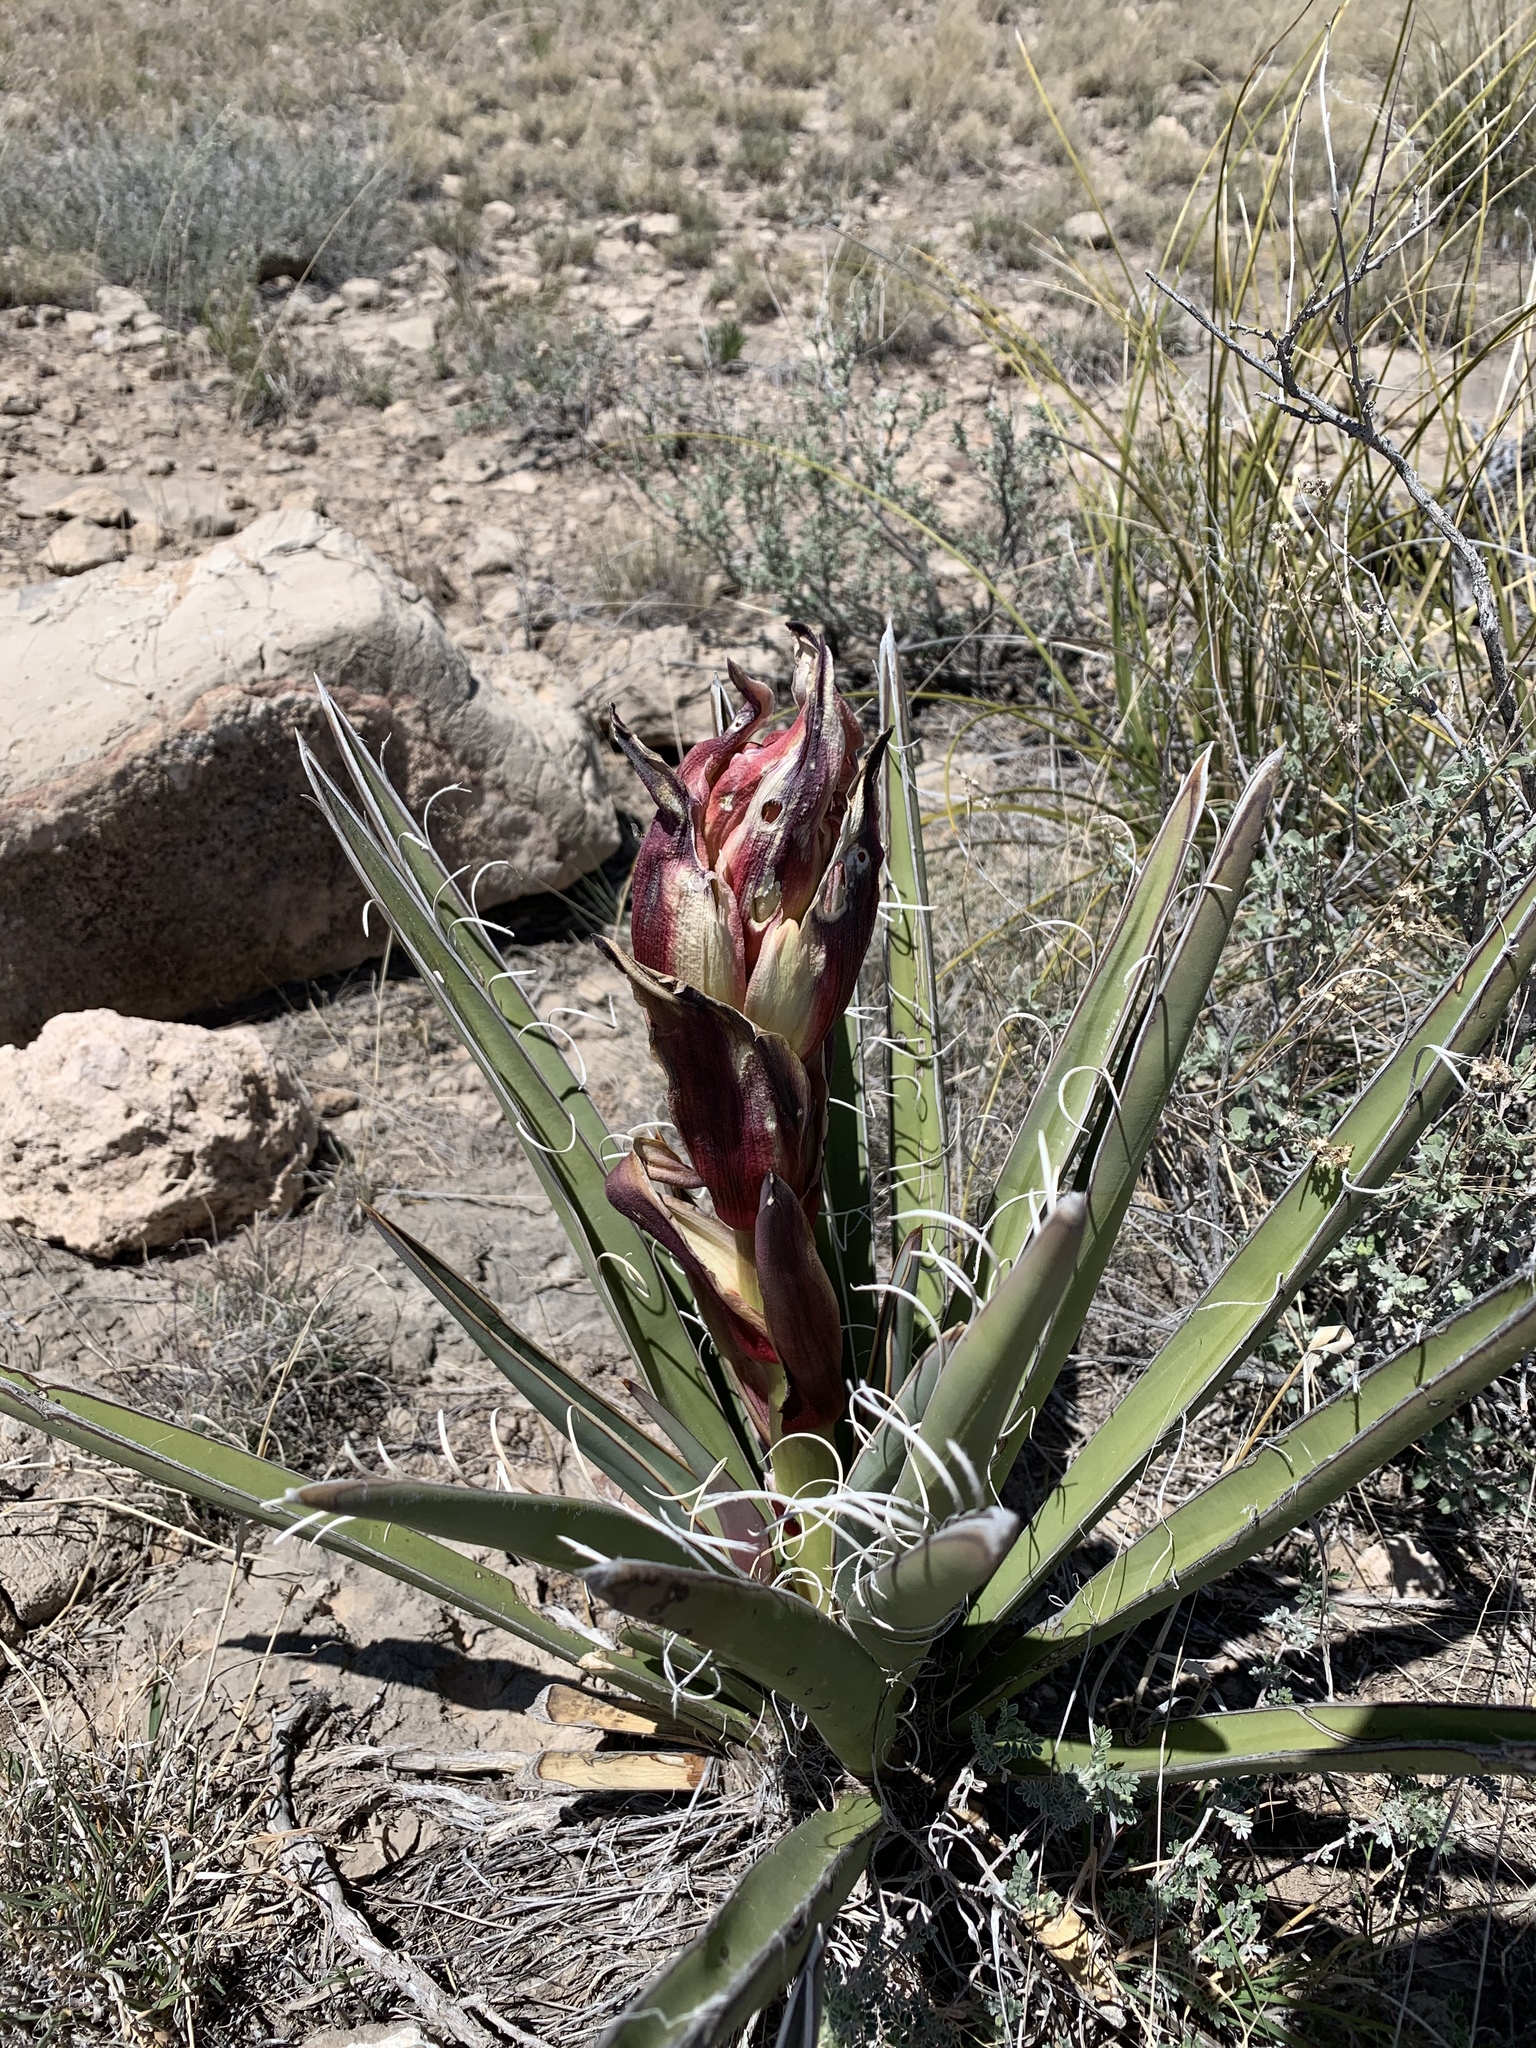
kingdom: Plantae
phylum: Tracheophyta
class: Liliopsida
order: Asparagales
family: Asparagaceae
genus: Yucca
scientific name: Yucca baccata
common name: Banana yucca
